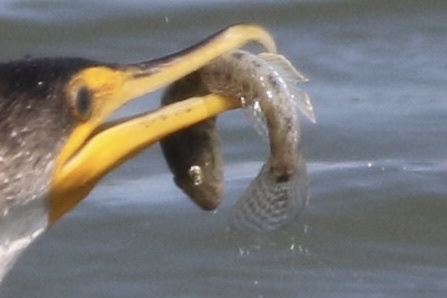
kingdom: Animalia
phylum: Chordata
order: Perciformes
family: Gobiidae
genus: Acanthogobius
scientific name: Acanthogobius flavimanus
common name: Yellowfin goby
